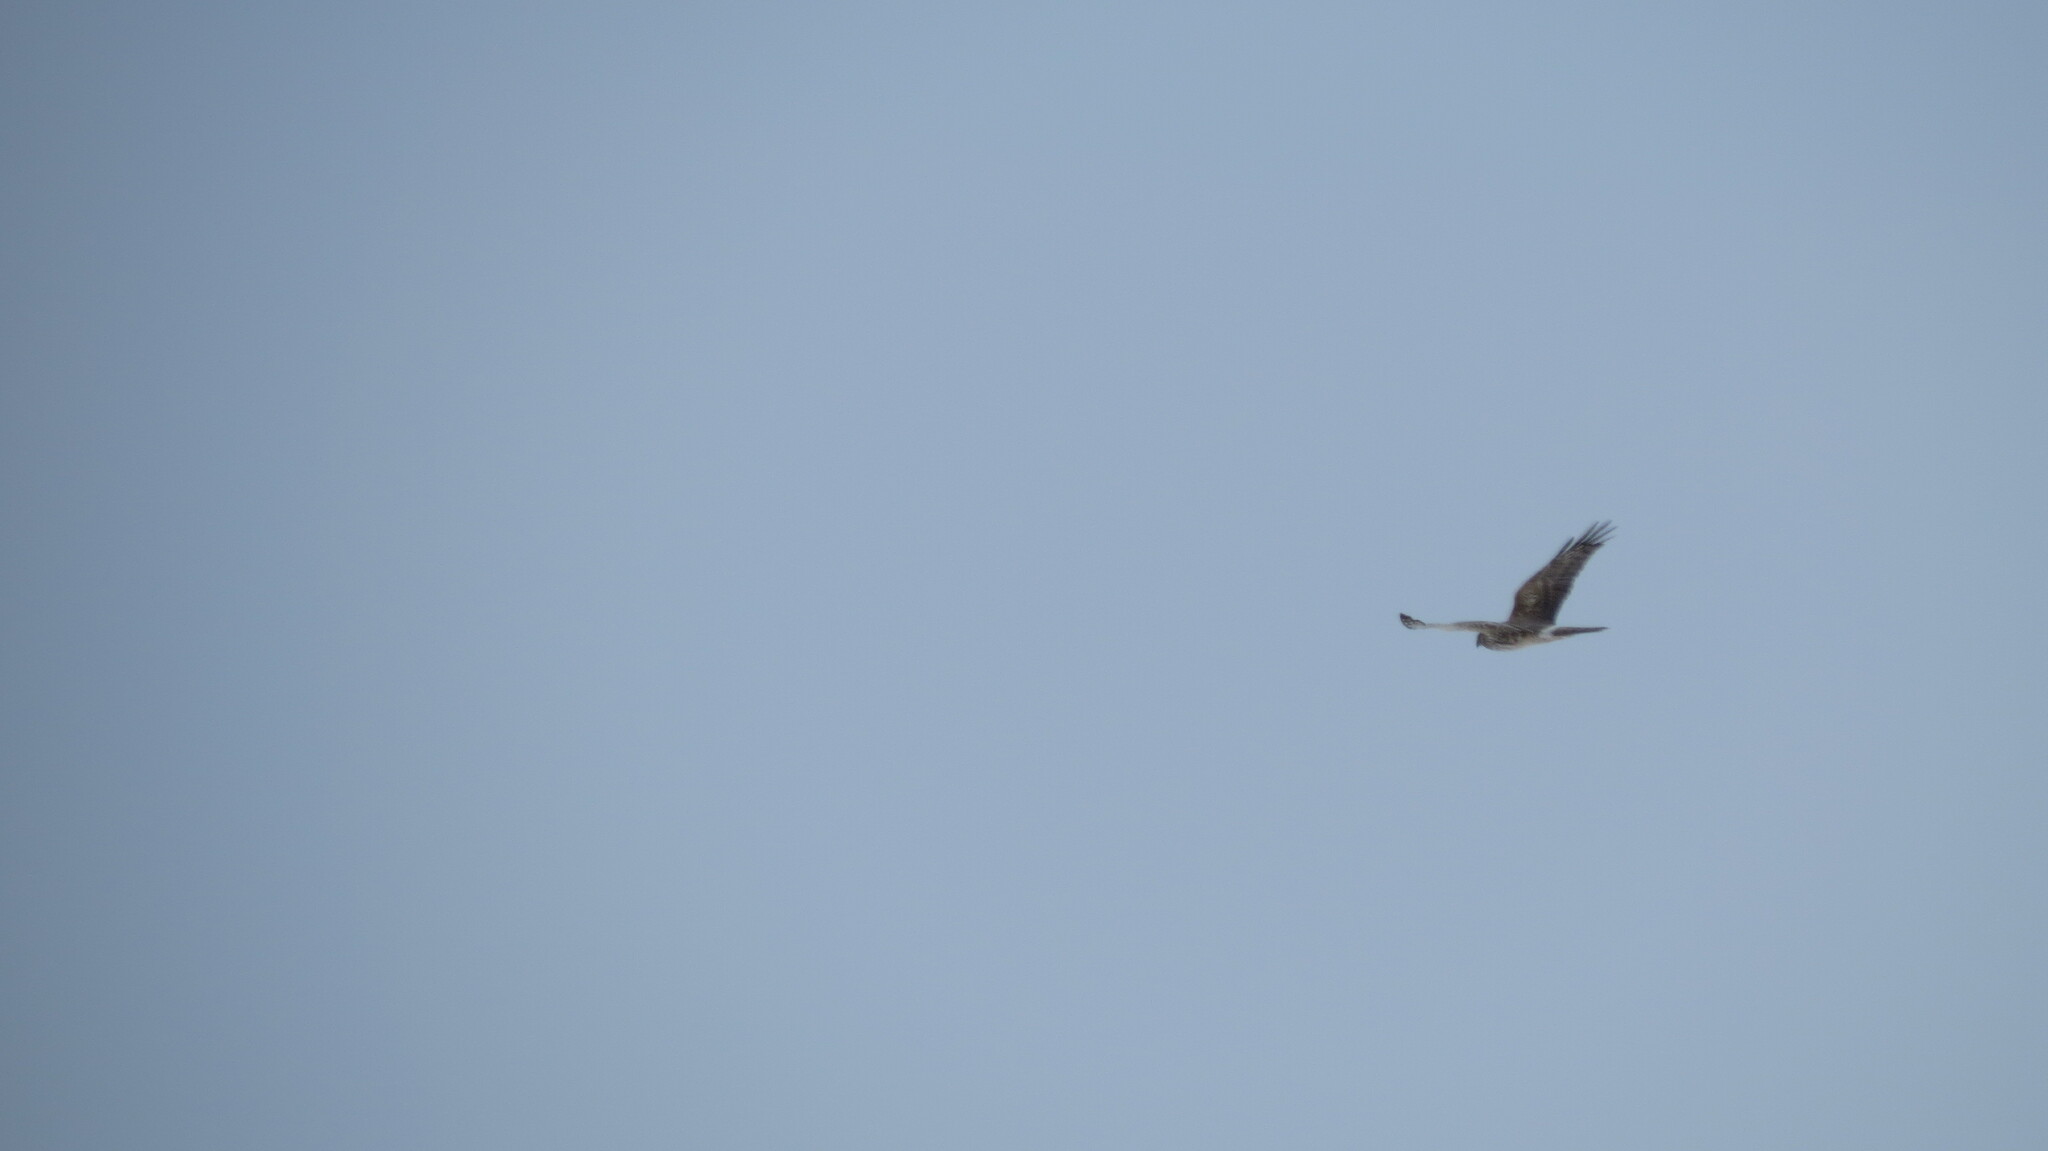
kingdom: Animalia
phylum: Chordata
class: Aves
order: Accipitriformes
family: Accipitridae
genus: Circus
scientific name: Circus cyaneus
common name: Hen harrier
